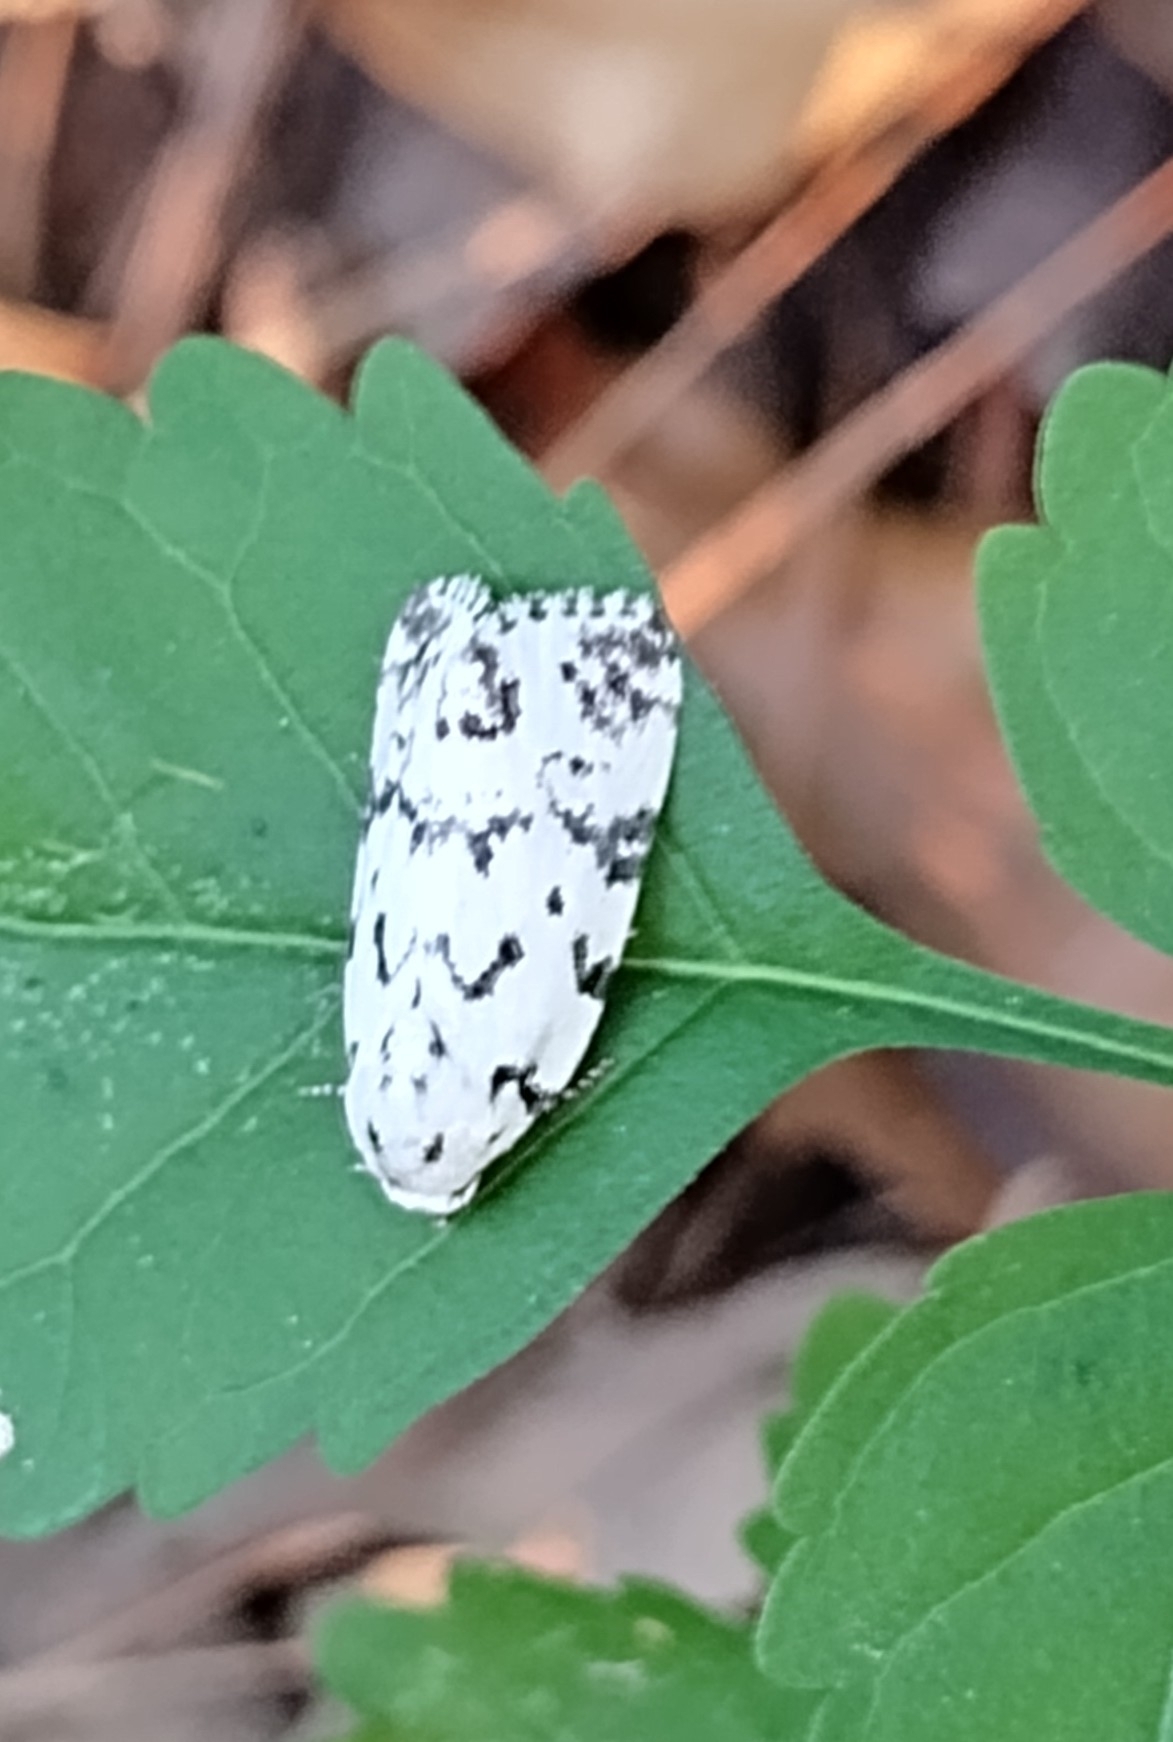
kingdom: Animalia
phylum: Arthropoda
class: Insecta
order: Lepidoptera
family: Noctuidae
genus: Polygrammate
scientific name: Polygrammate hebraeicum
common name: Hebrew moth
